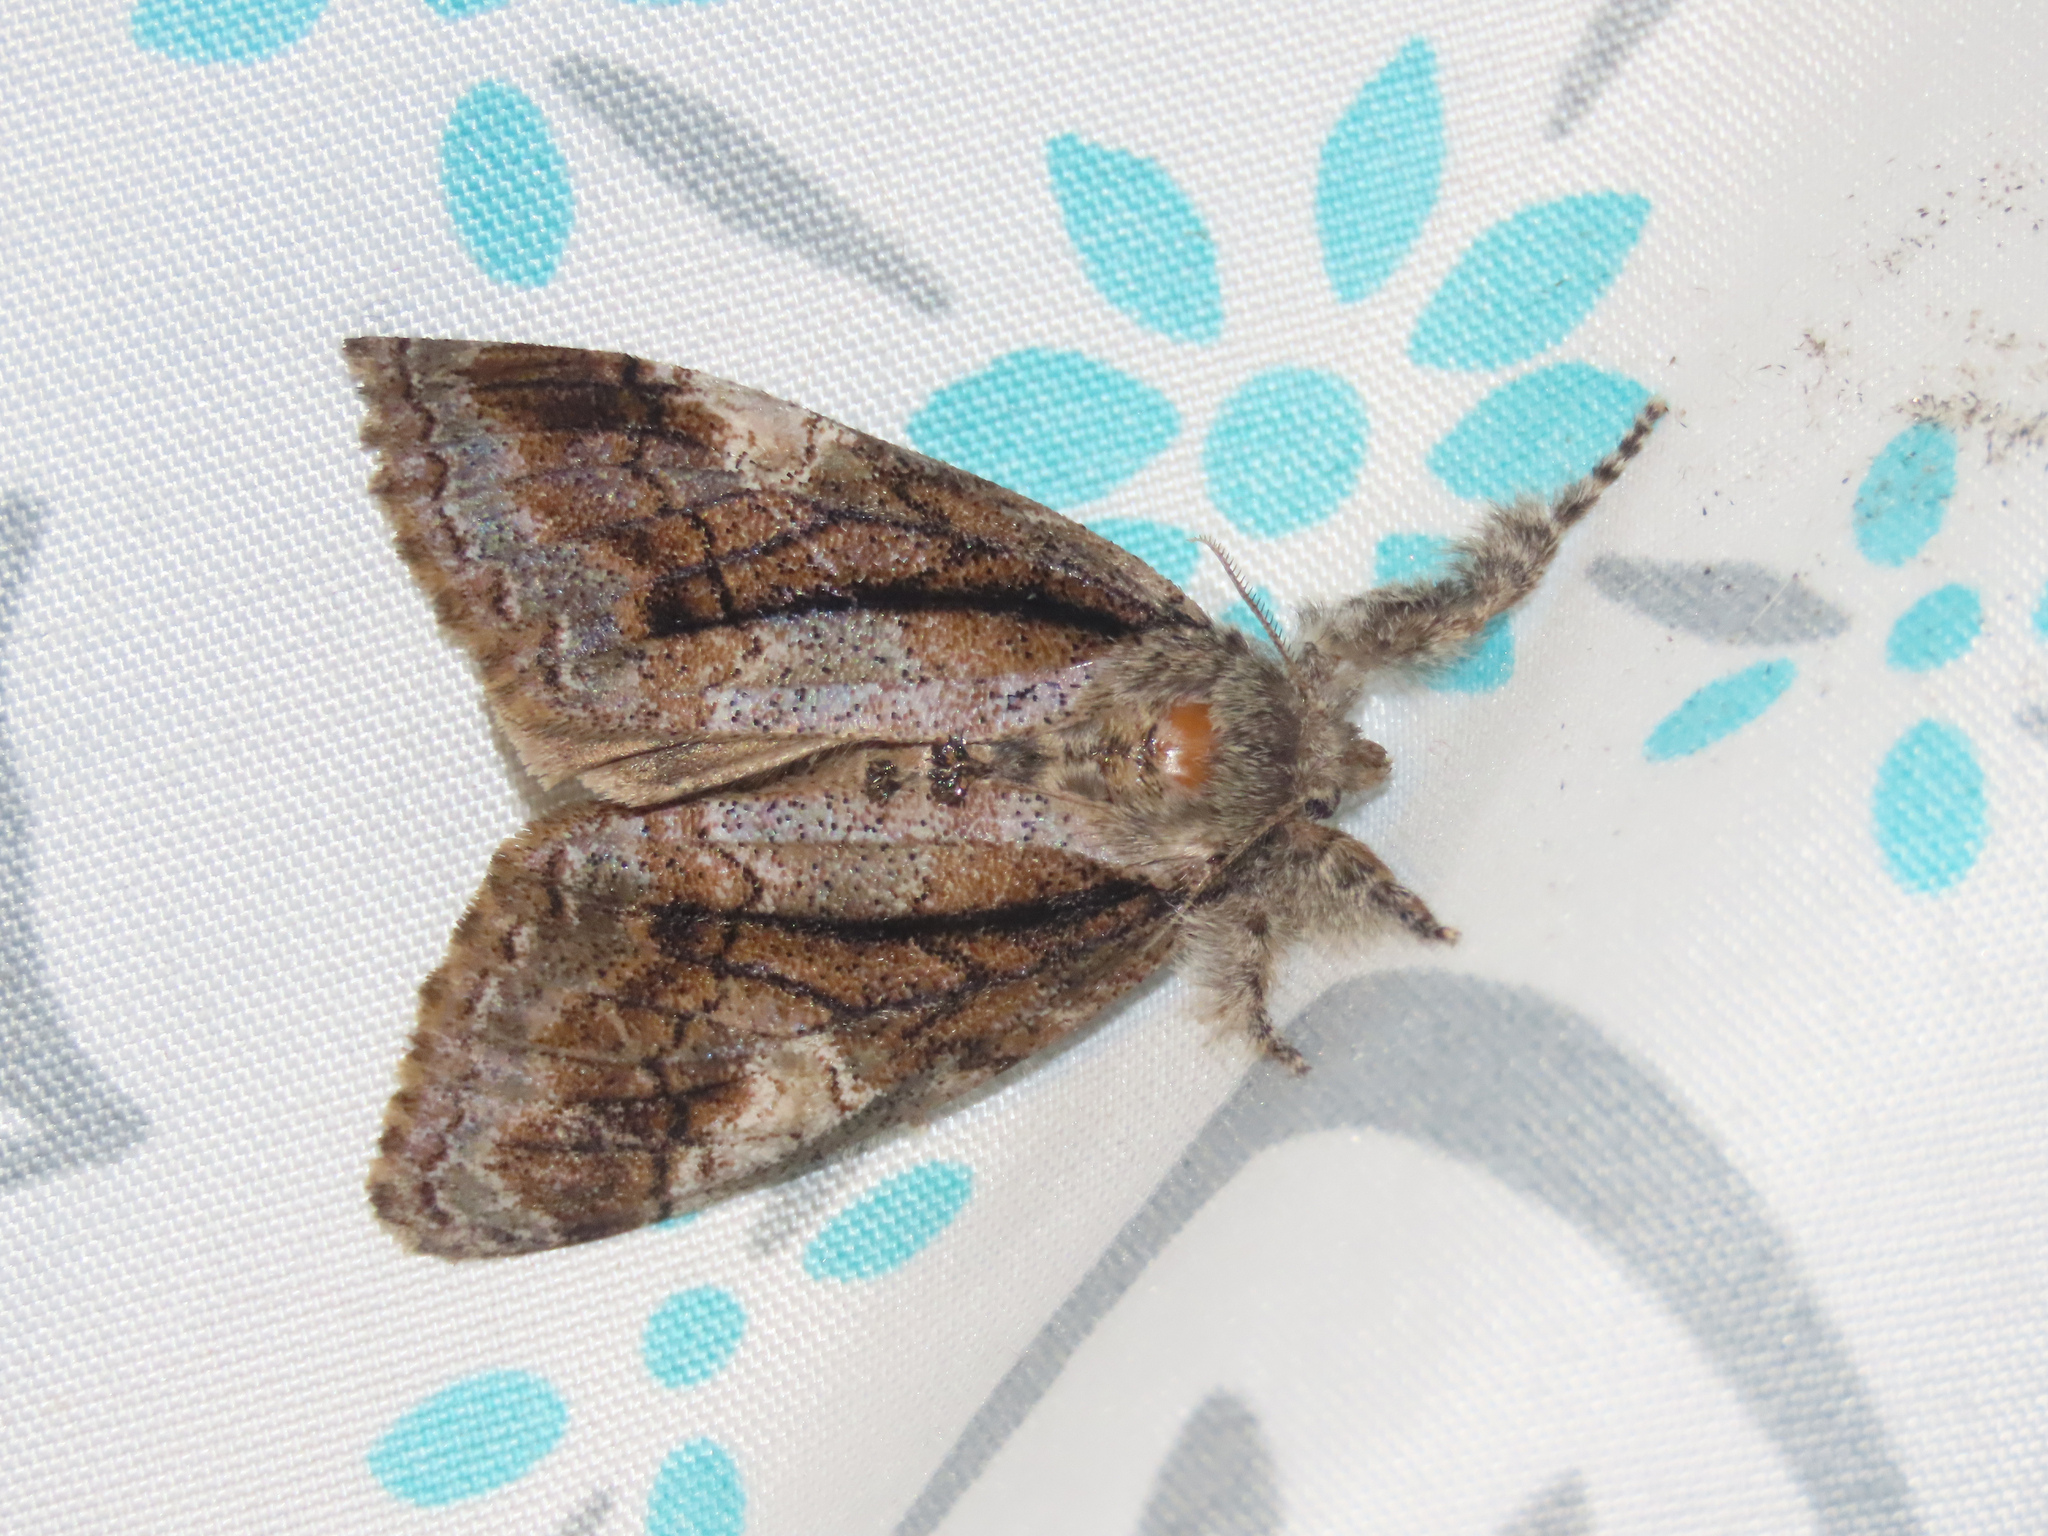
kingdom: Animalia
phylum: Arthropoda
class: Insecta
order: Lepidoptera
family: Erebidae
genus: Dasychira
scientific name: Dasychira obliquata
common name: Streaked tussock moth
